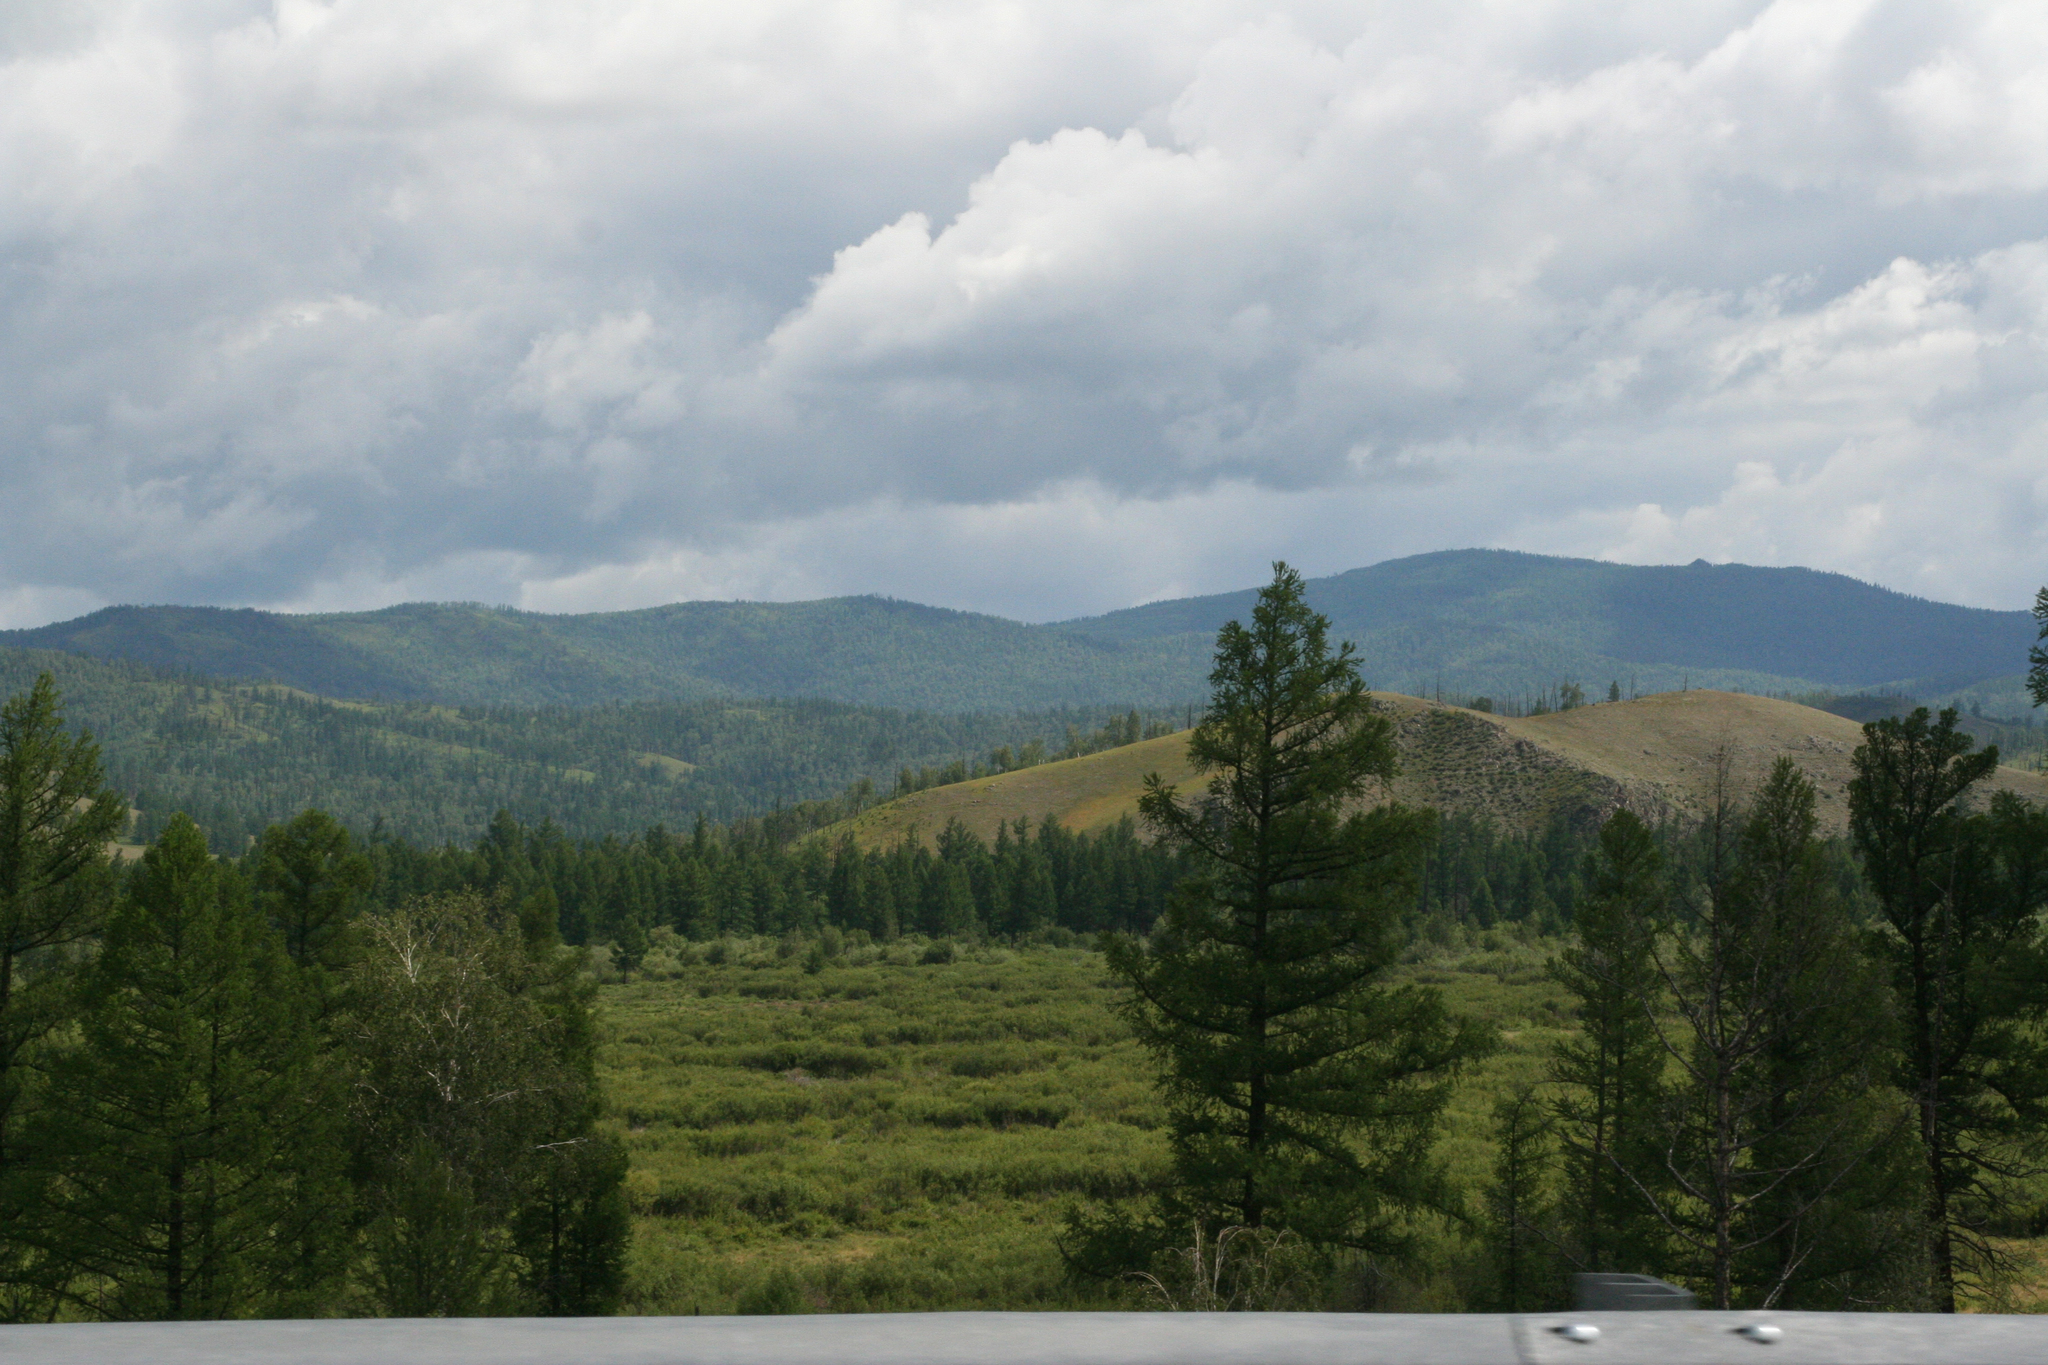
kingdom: Plantae
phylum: Tracheophyta
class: Pinopsida
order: Pinales
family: Pinaceae
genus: Larix
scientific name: Larix sibirica
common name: Siberian larch
